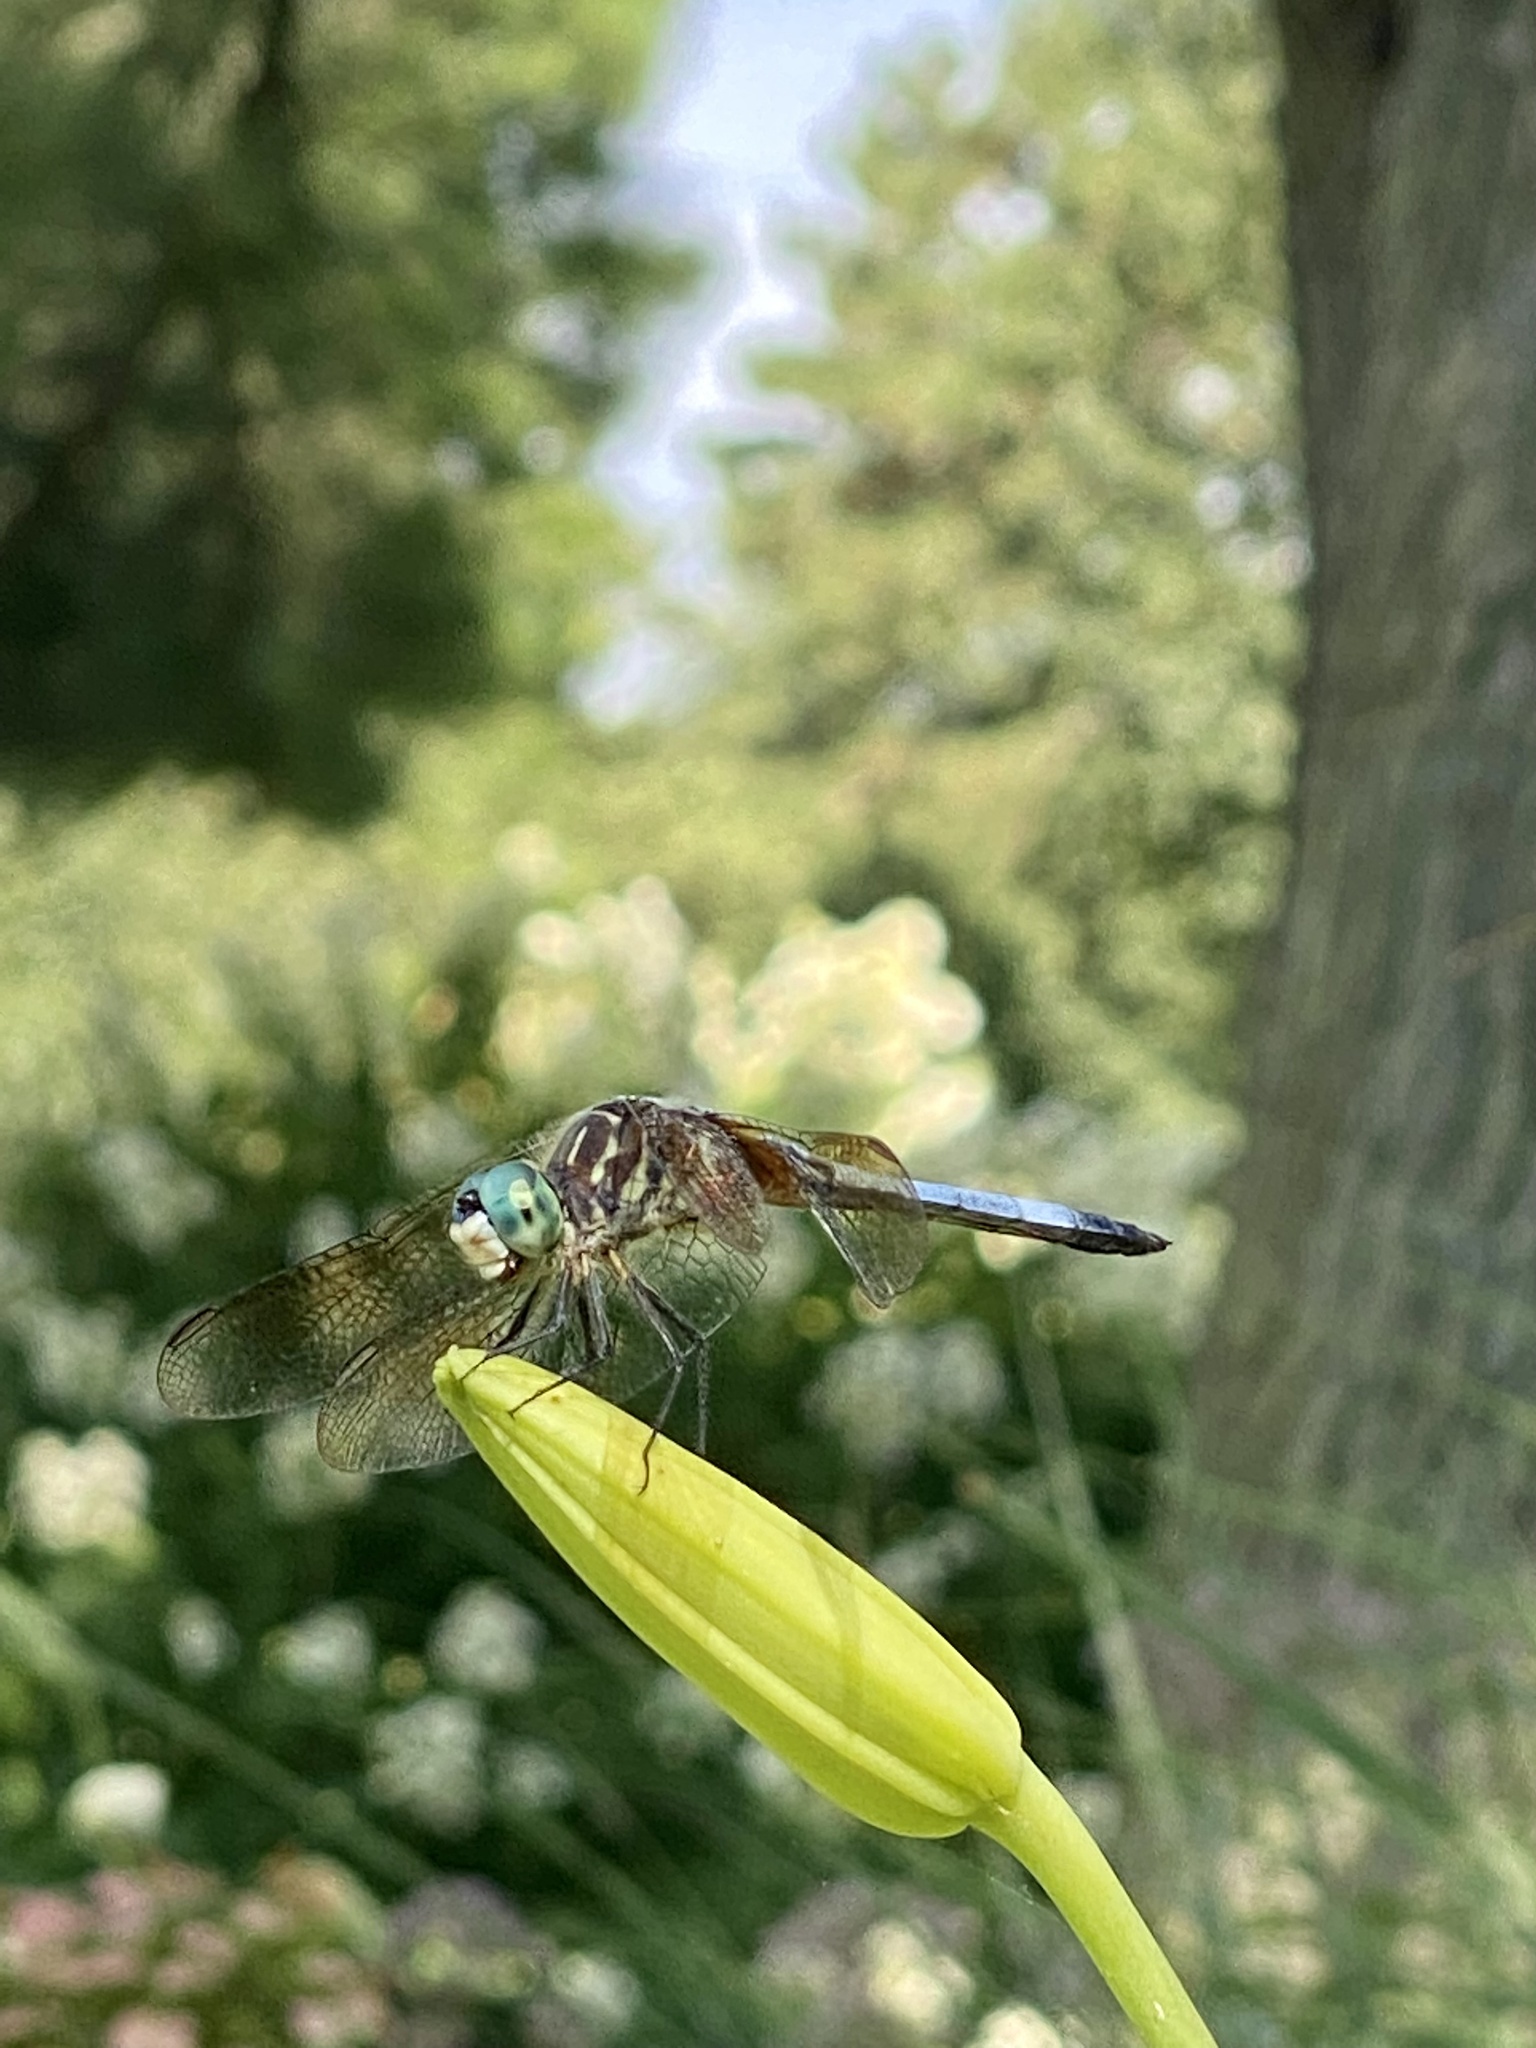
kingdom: Animalia
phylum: Arthropoda
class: Insecta
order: Odonata
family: Libellulidae
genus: Pachydiplax
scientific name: Pachydiplax longipennis
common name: Blue dasher
